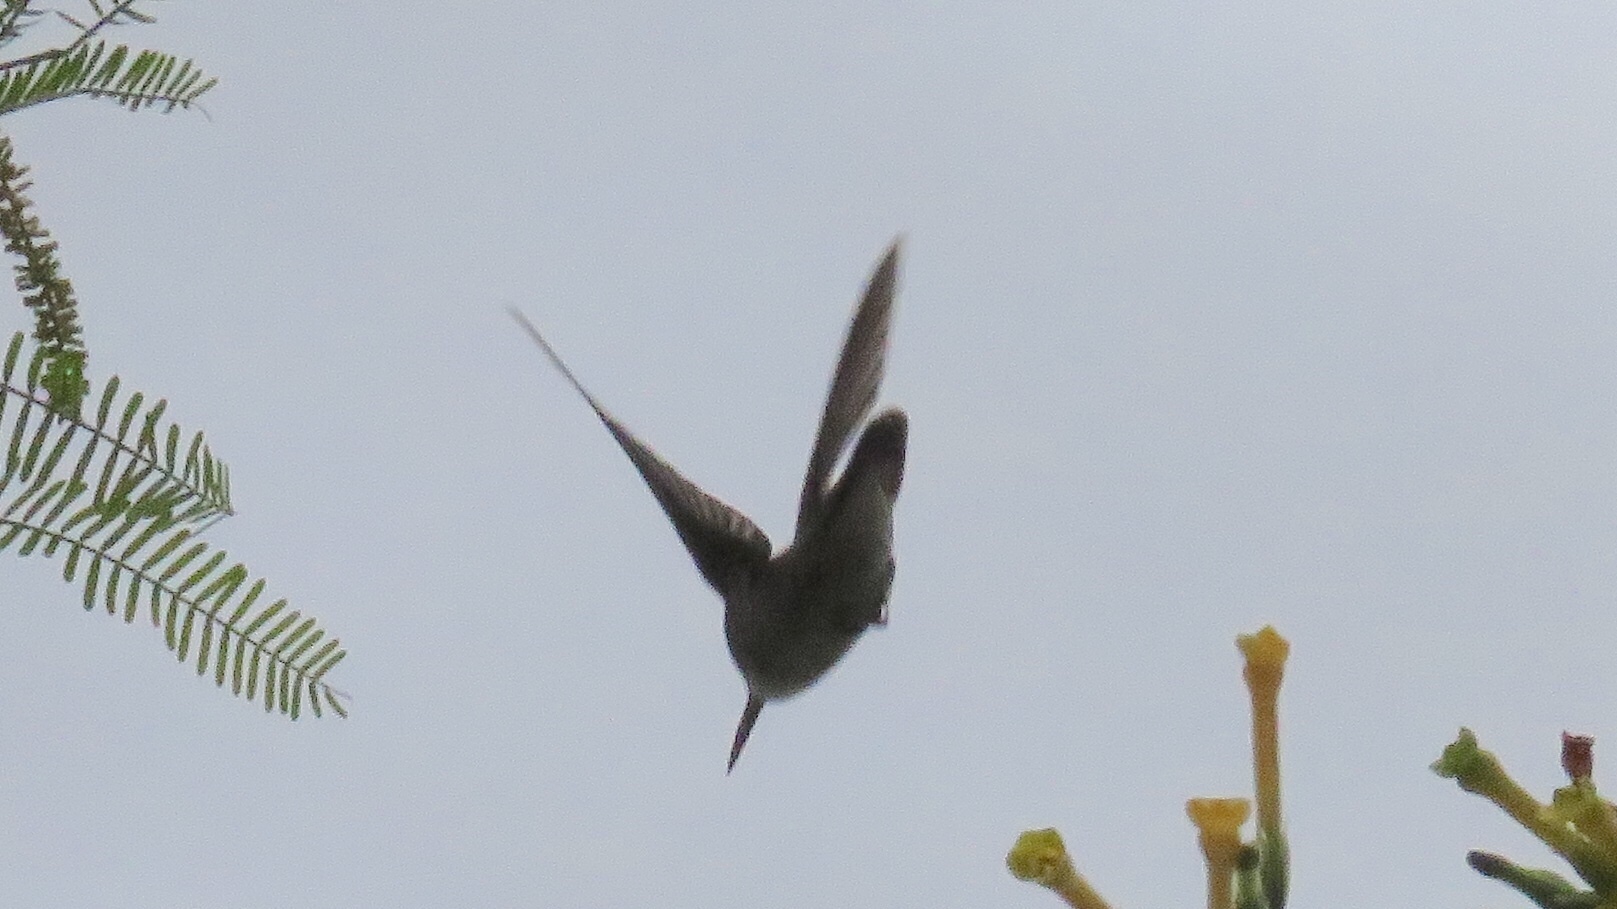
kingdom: Animalia
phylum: Chordata
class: Aves
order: Apodiformes
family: Trochilidae
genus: Elliotomyia
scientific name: Elliotomyia chionogaster
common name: White-bellied hummingbird
